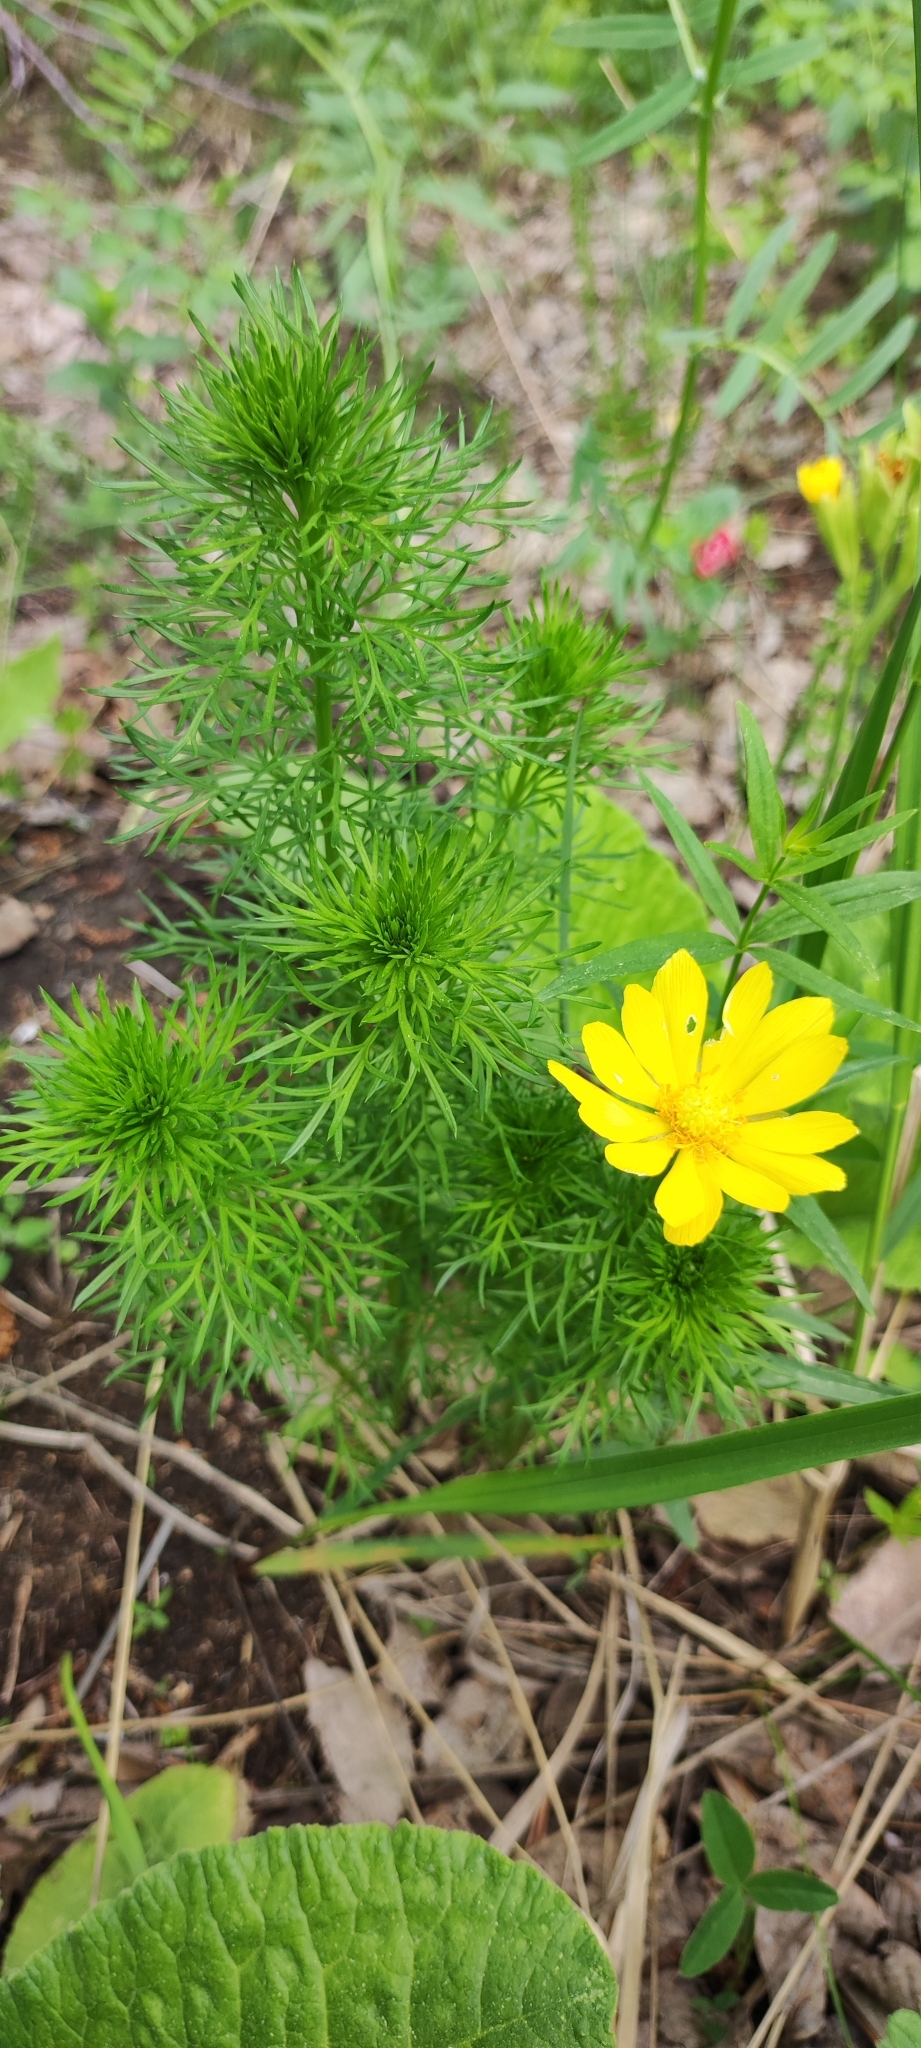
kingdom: Plantae
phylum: Tracheophyta
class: Magnoliopsida
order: Ranunculales
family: Ranunculaceae
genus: Adonis
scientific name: Adonis vernalis
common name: Yellow pheasants-eye
